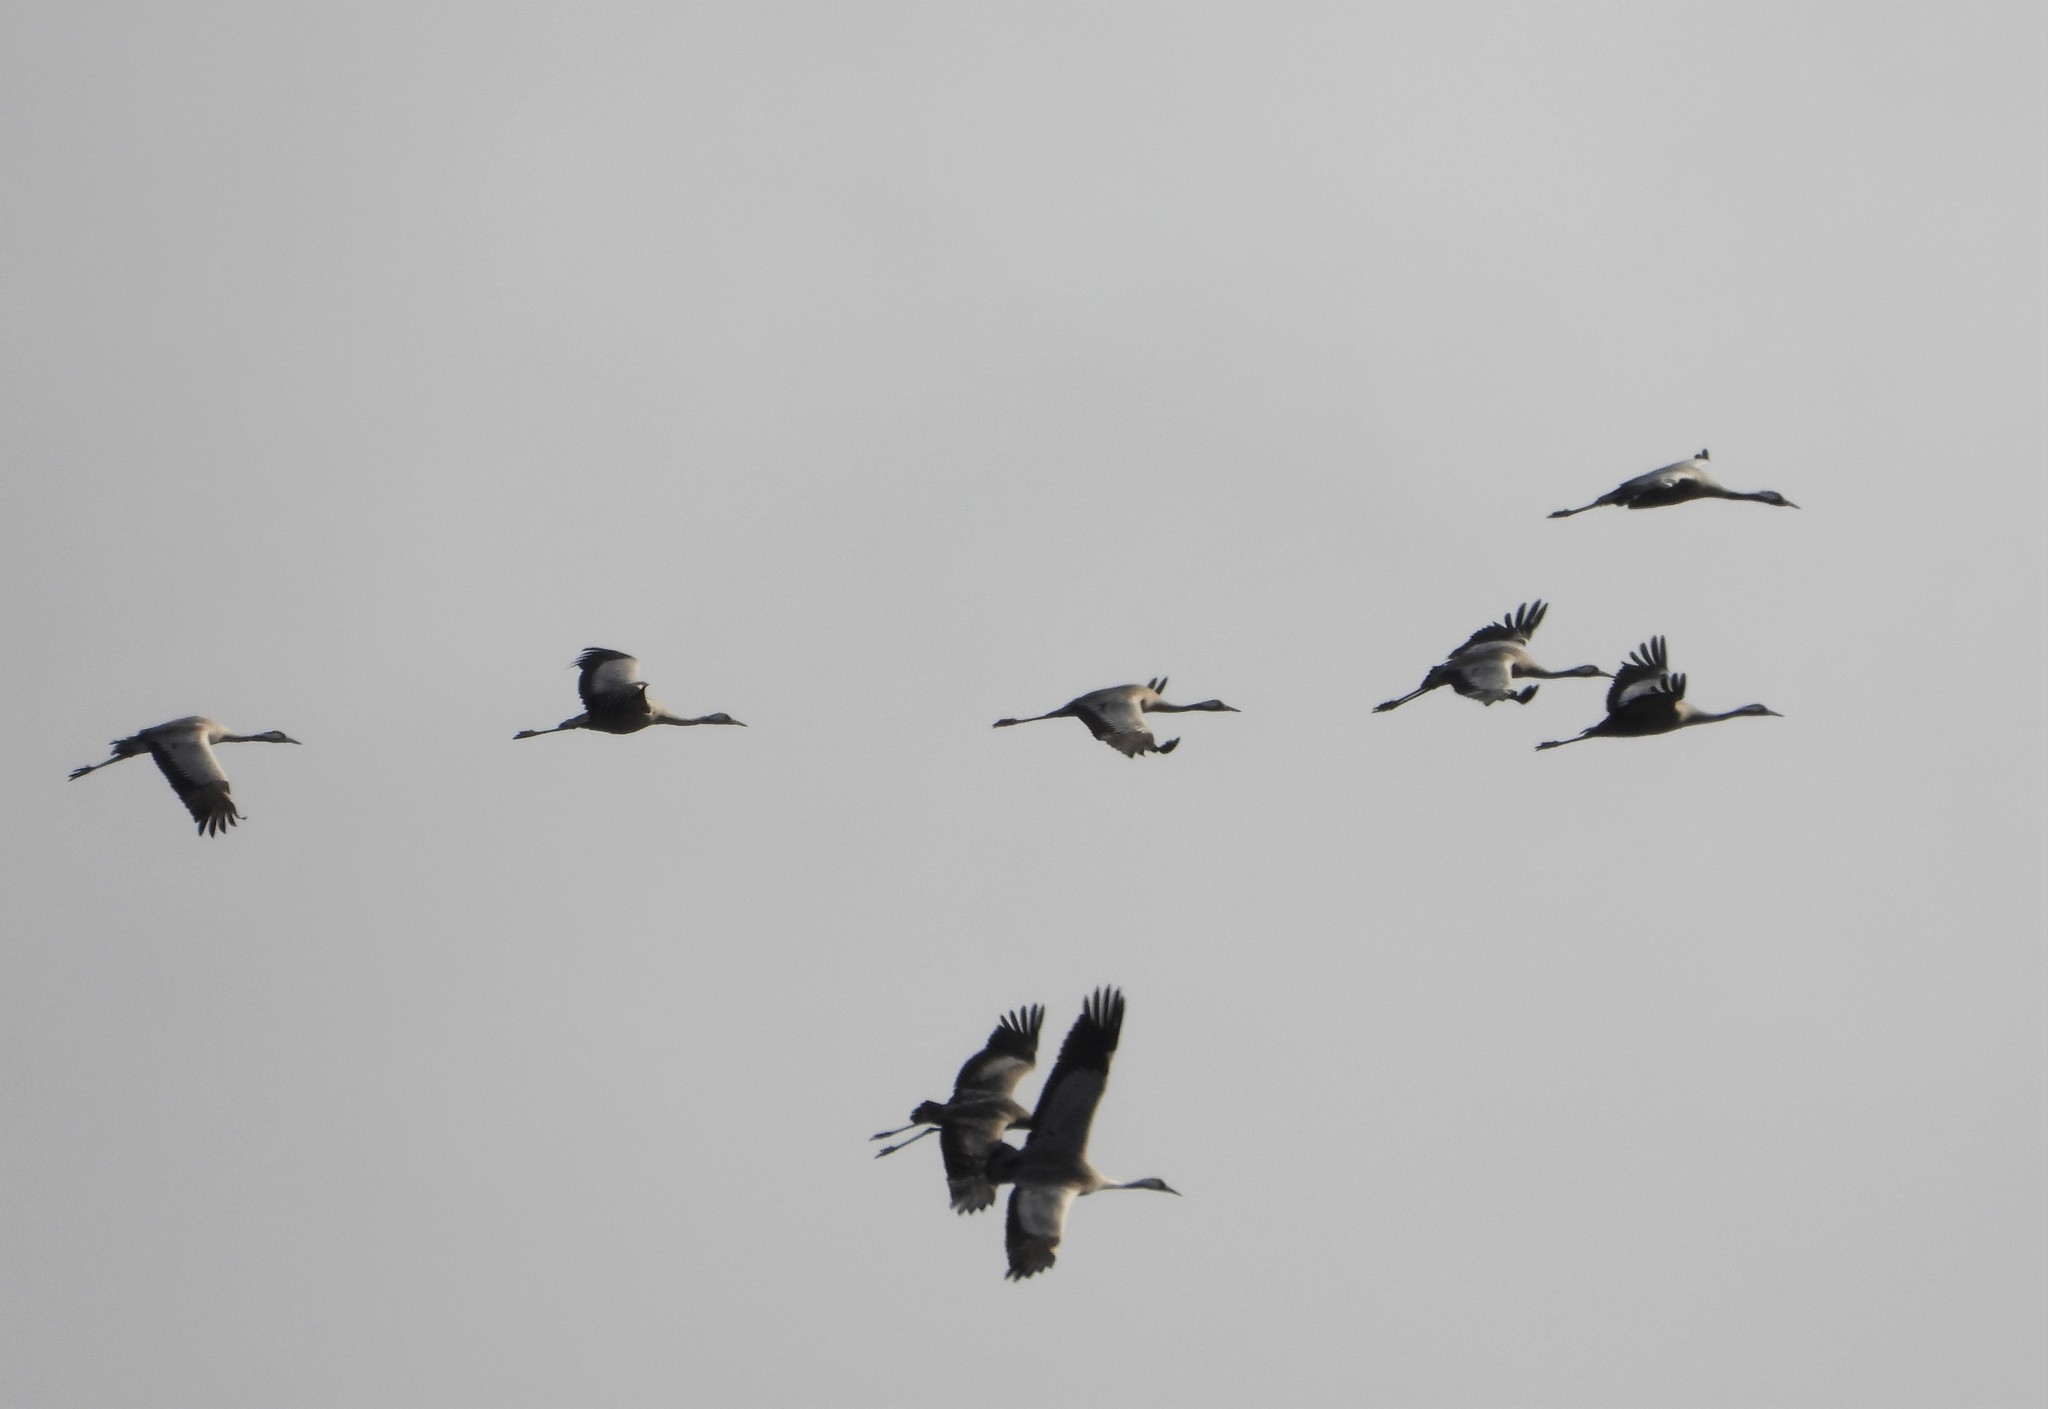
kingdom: Animalia
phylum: Chordata
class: Aves
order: Gruiformes
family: Gruidae
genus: Grus
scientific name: Grus grus
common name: Common crane
